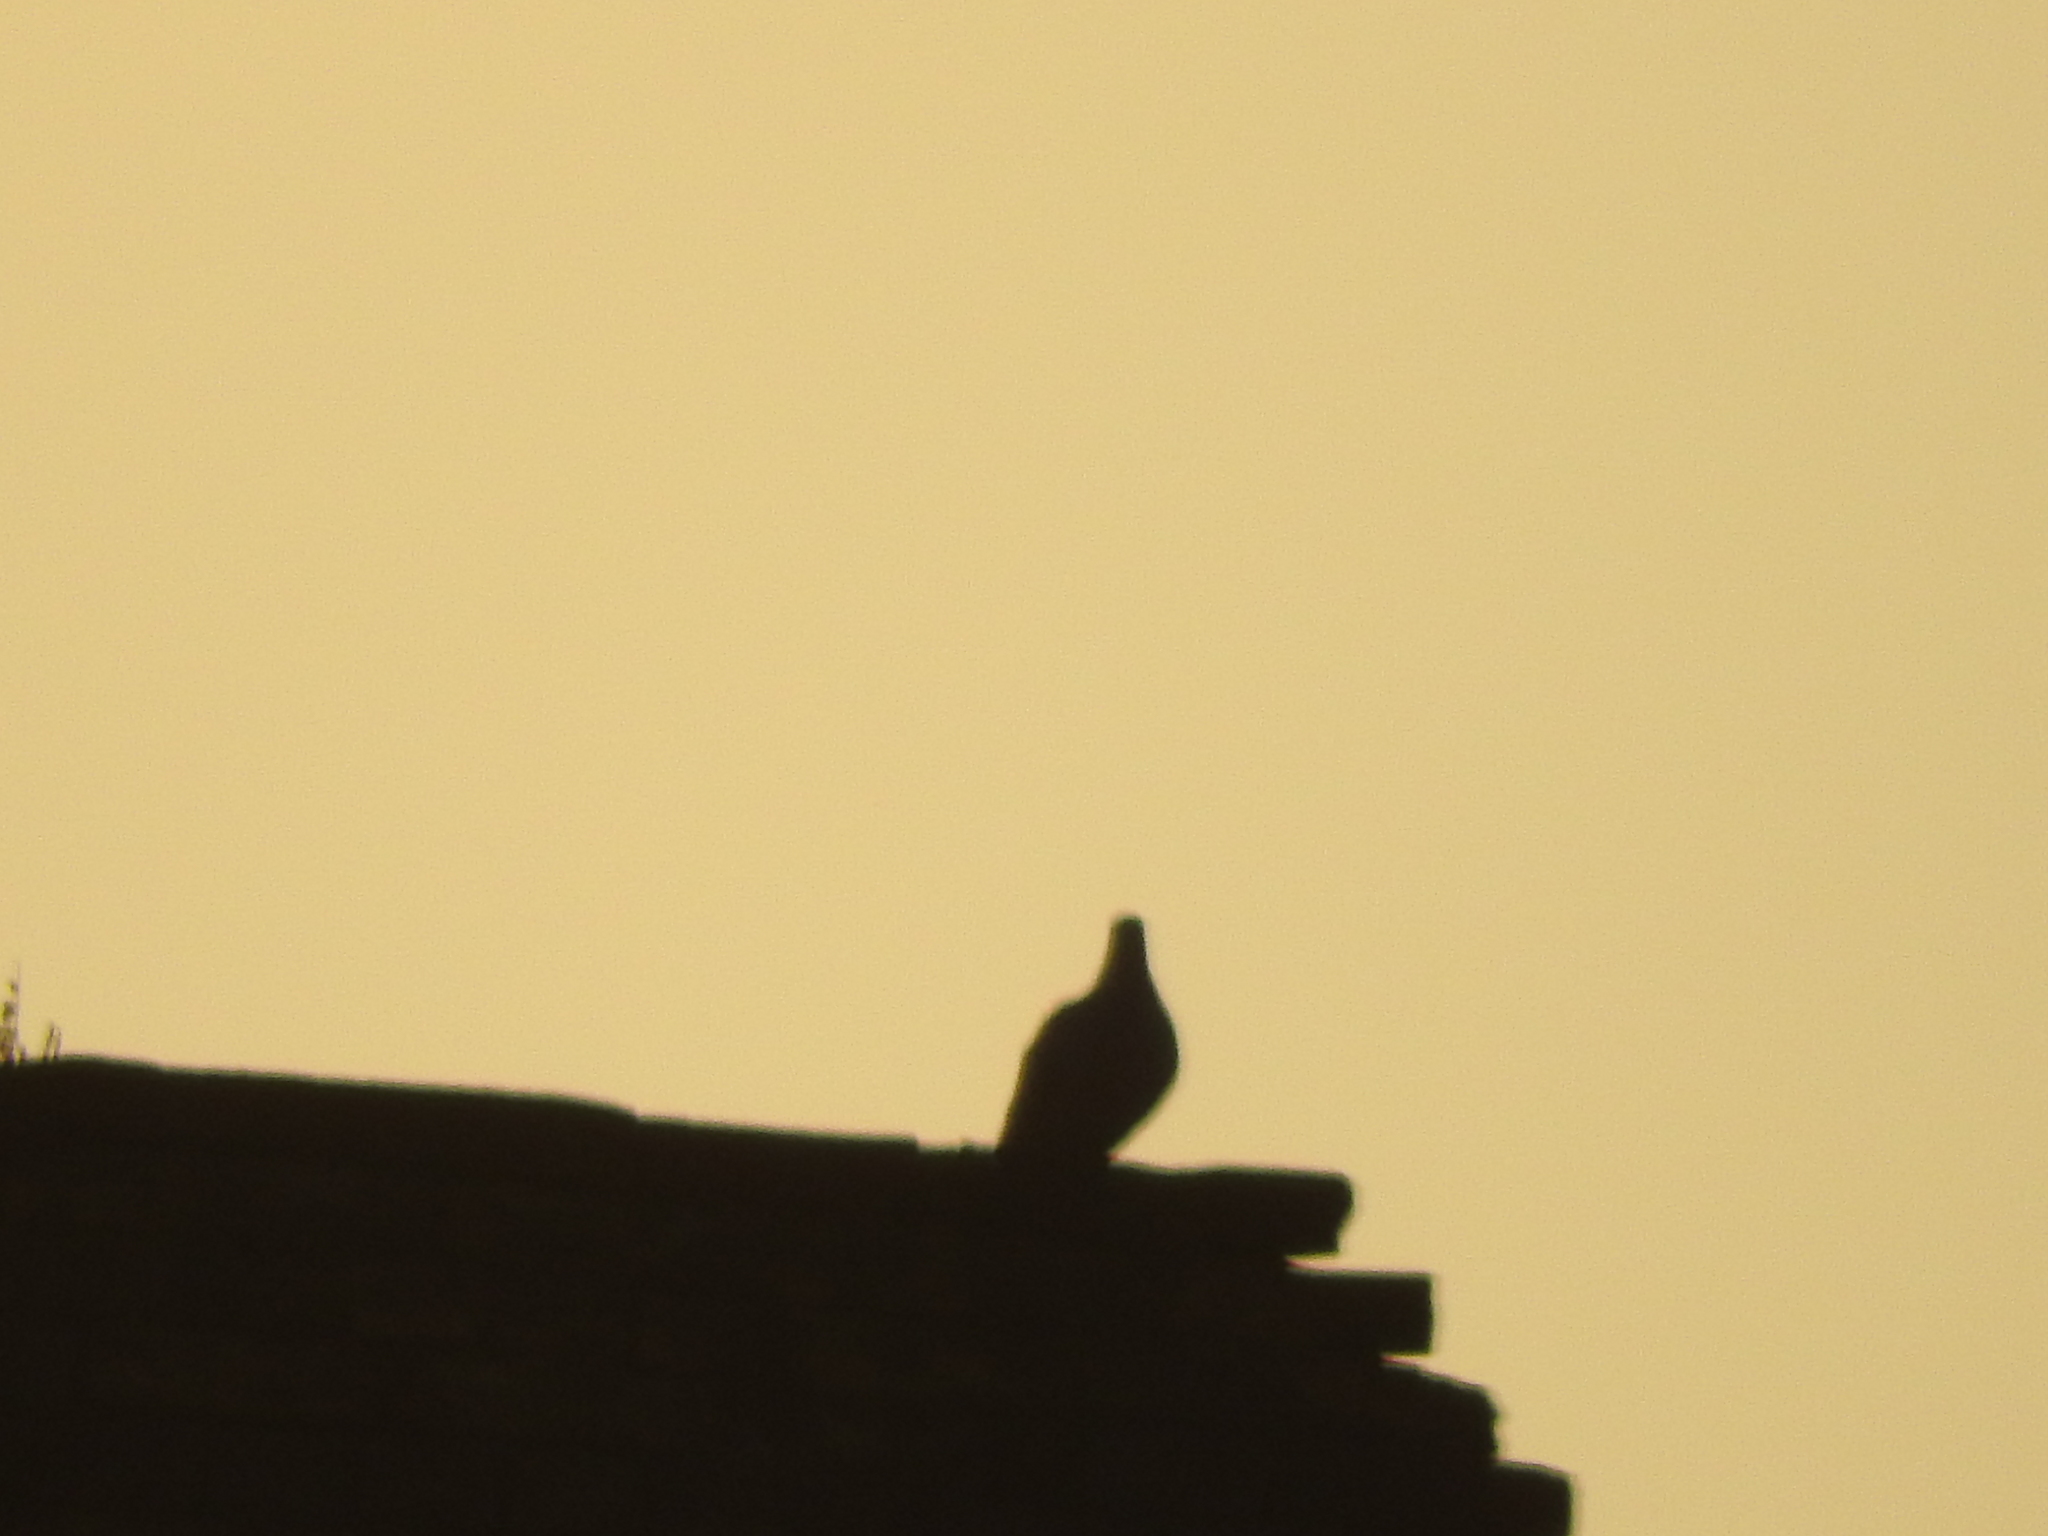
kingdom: Animalia
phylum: Chordata
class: Aves
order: Columbiformes
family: Columbidae
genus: Streptopelia
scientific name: Streptopelia decaocto
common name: Eurasian collared dove
